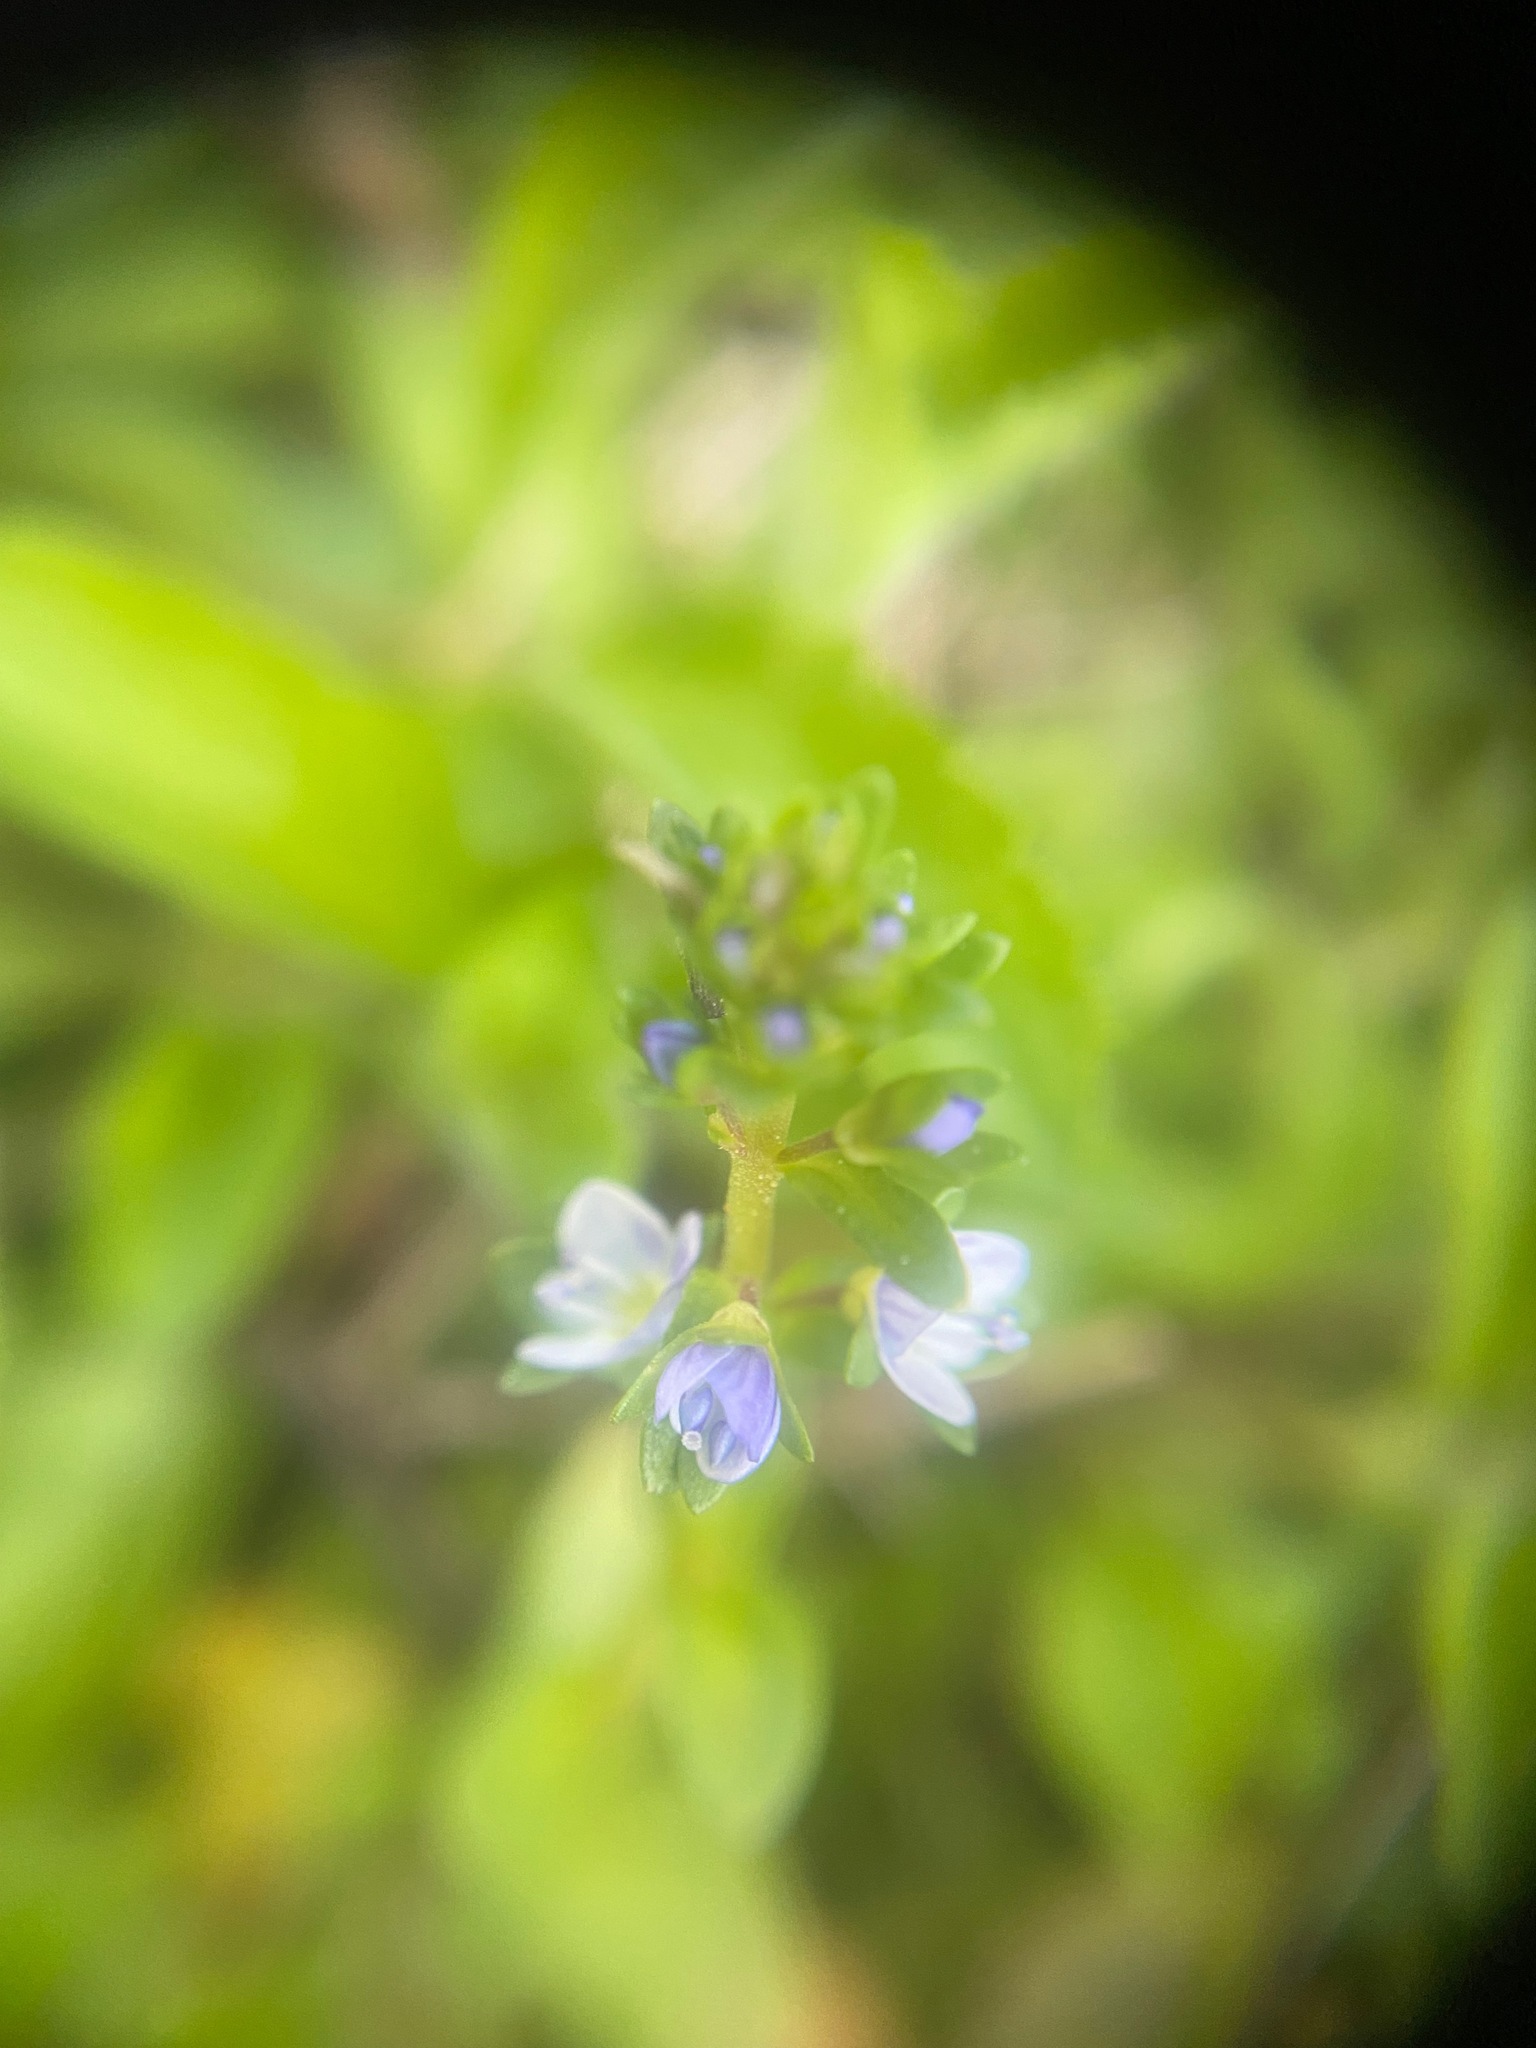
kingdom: Plantae
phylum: Tracheophyta
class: Magnoliopsida
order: Lamiales
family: Plantaginaceae
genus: Veronica
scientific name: Veronica serpyllifolia
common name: Thyme-leaved speedwell
